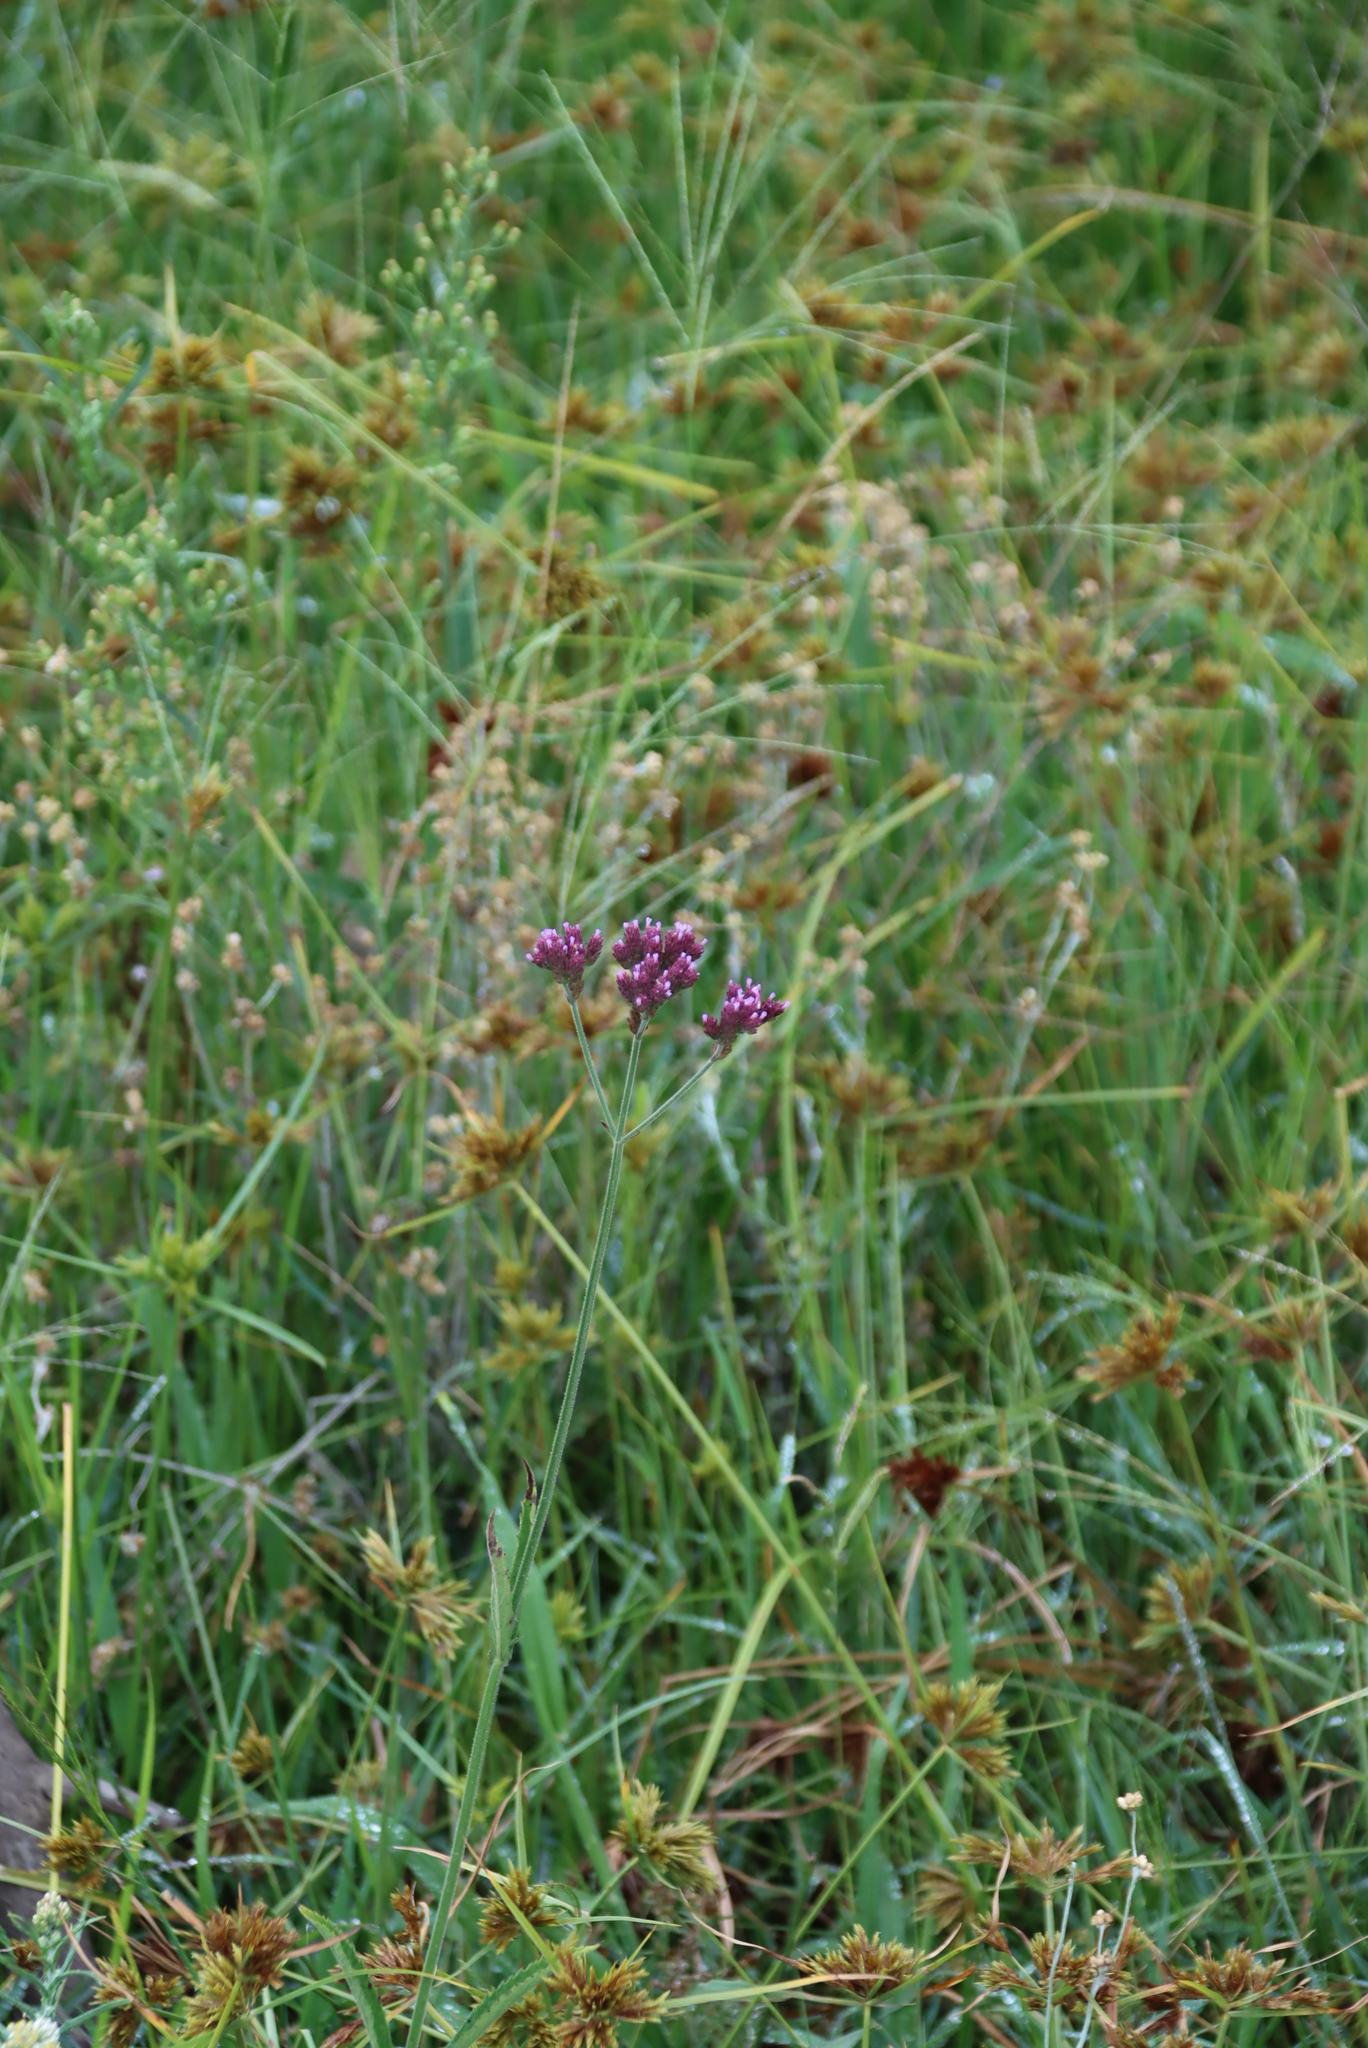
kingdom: Plantae
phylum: Tracheophyta
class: Magnoliopsida
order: Lamiales
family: Verbenaceae
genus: Verbena
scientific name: Verbena bonariensis
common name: Purpletop vervain
